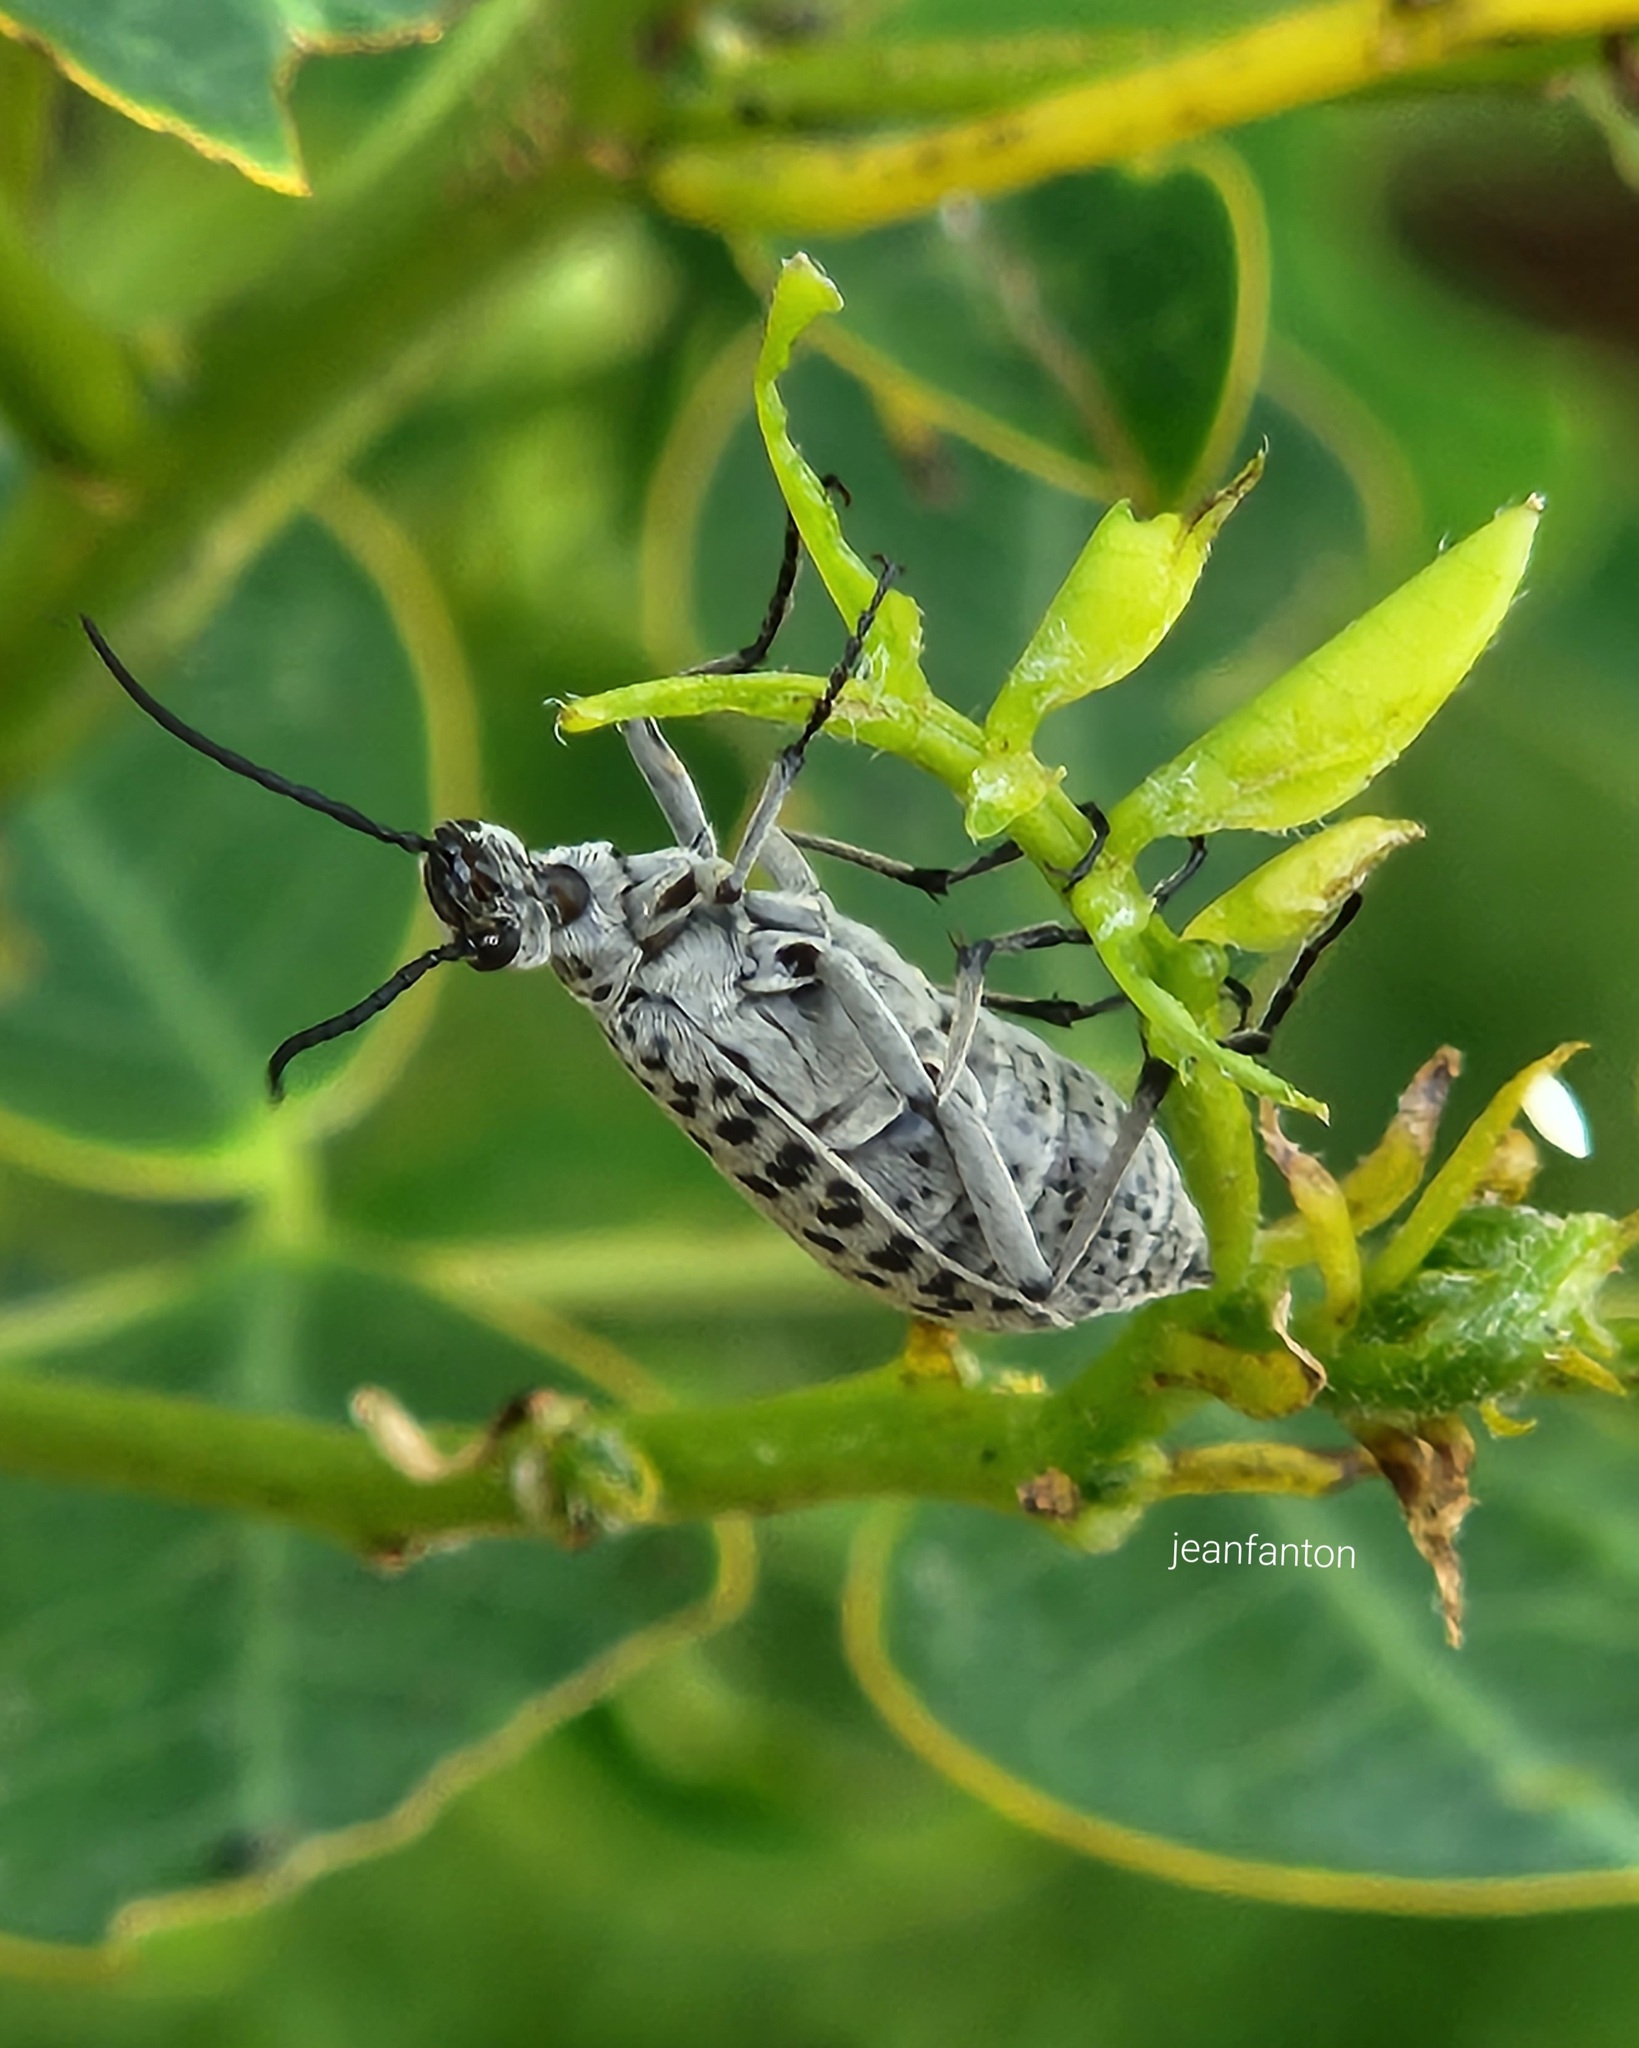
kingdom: Animalia
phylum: Arthropoda
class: Insecta
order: Coleoptera
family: Meloidae
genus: Epicauta
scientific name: Epicauta
